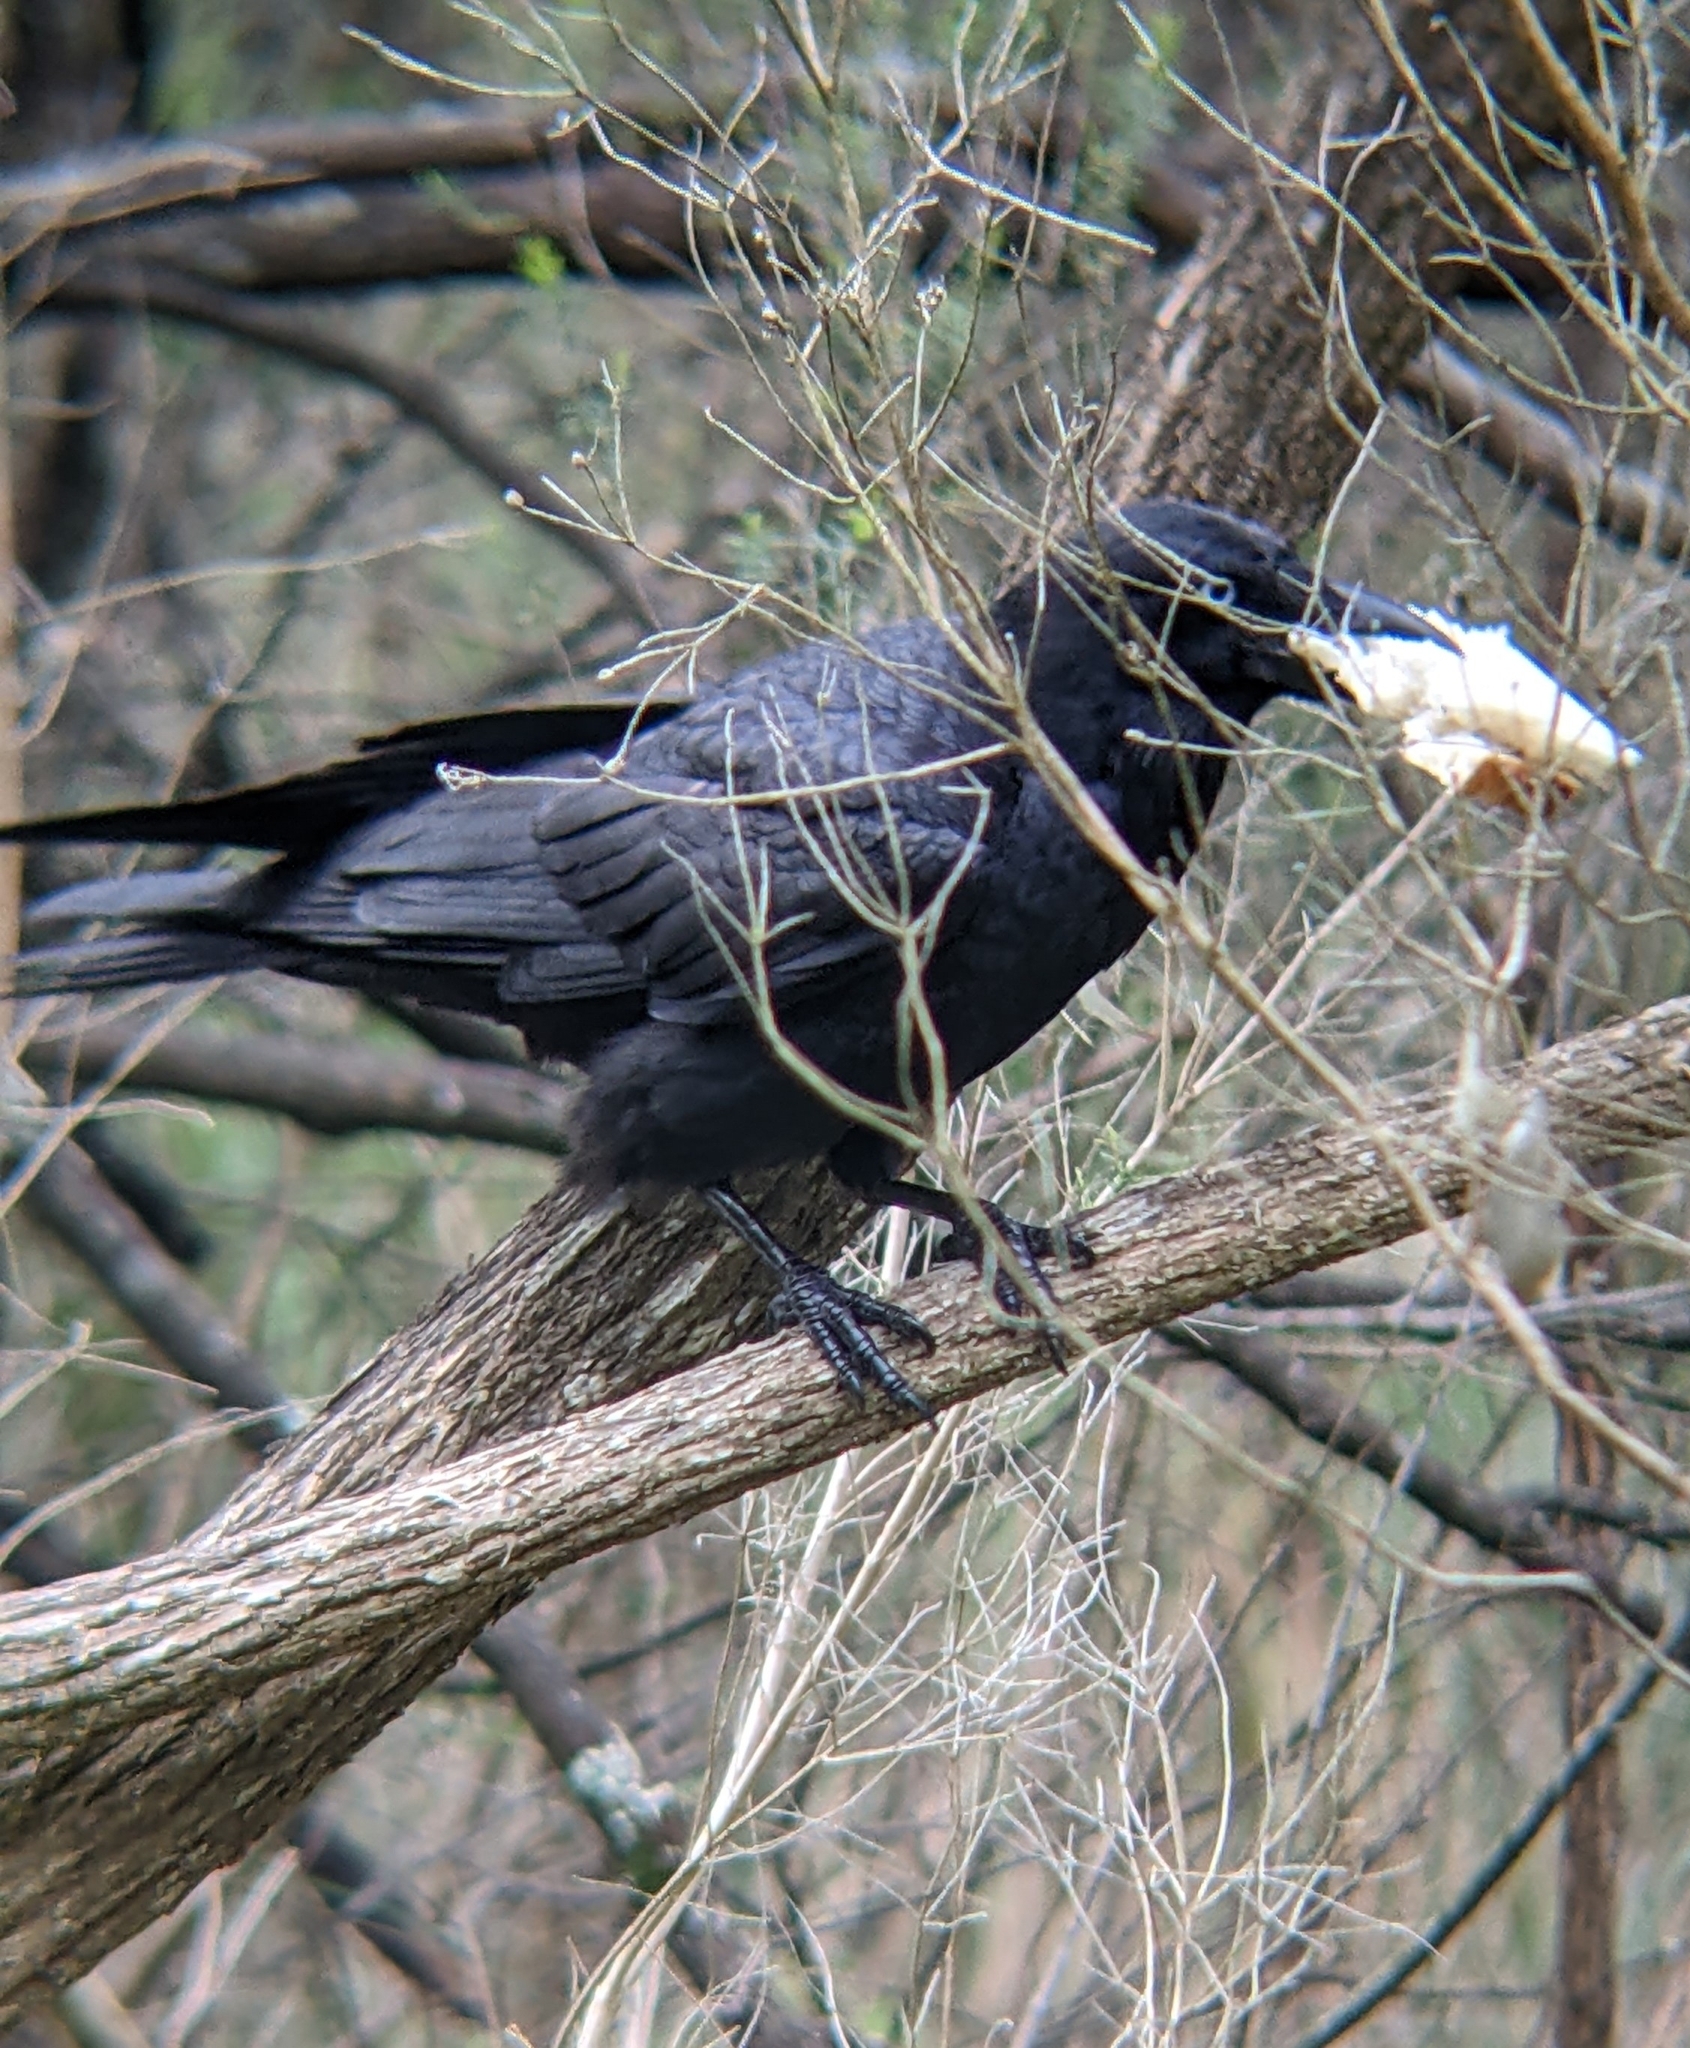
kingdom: Animalia
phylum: Chordata
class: Aves
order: Passeriformes
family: Corvidae
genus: Corvus
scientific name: Corvus mellori
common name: Little raven
